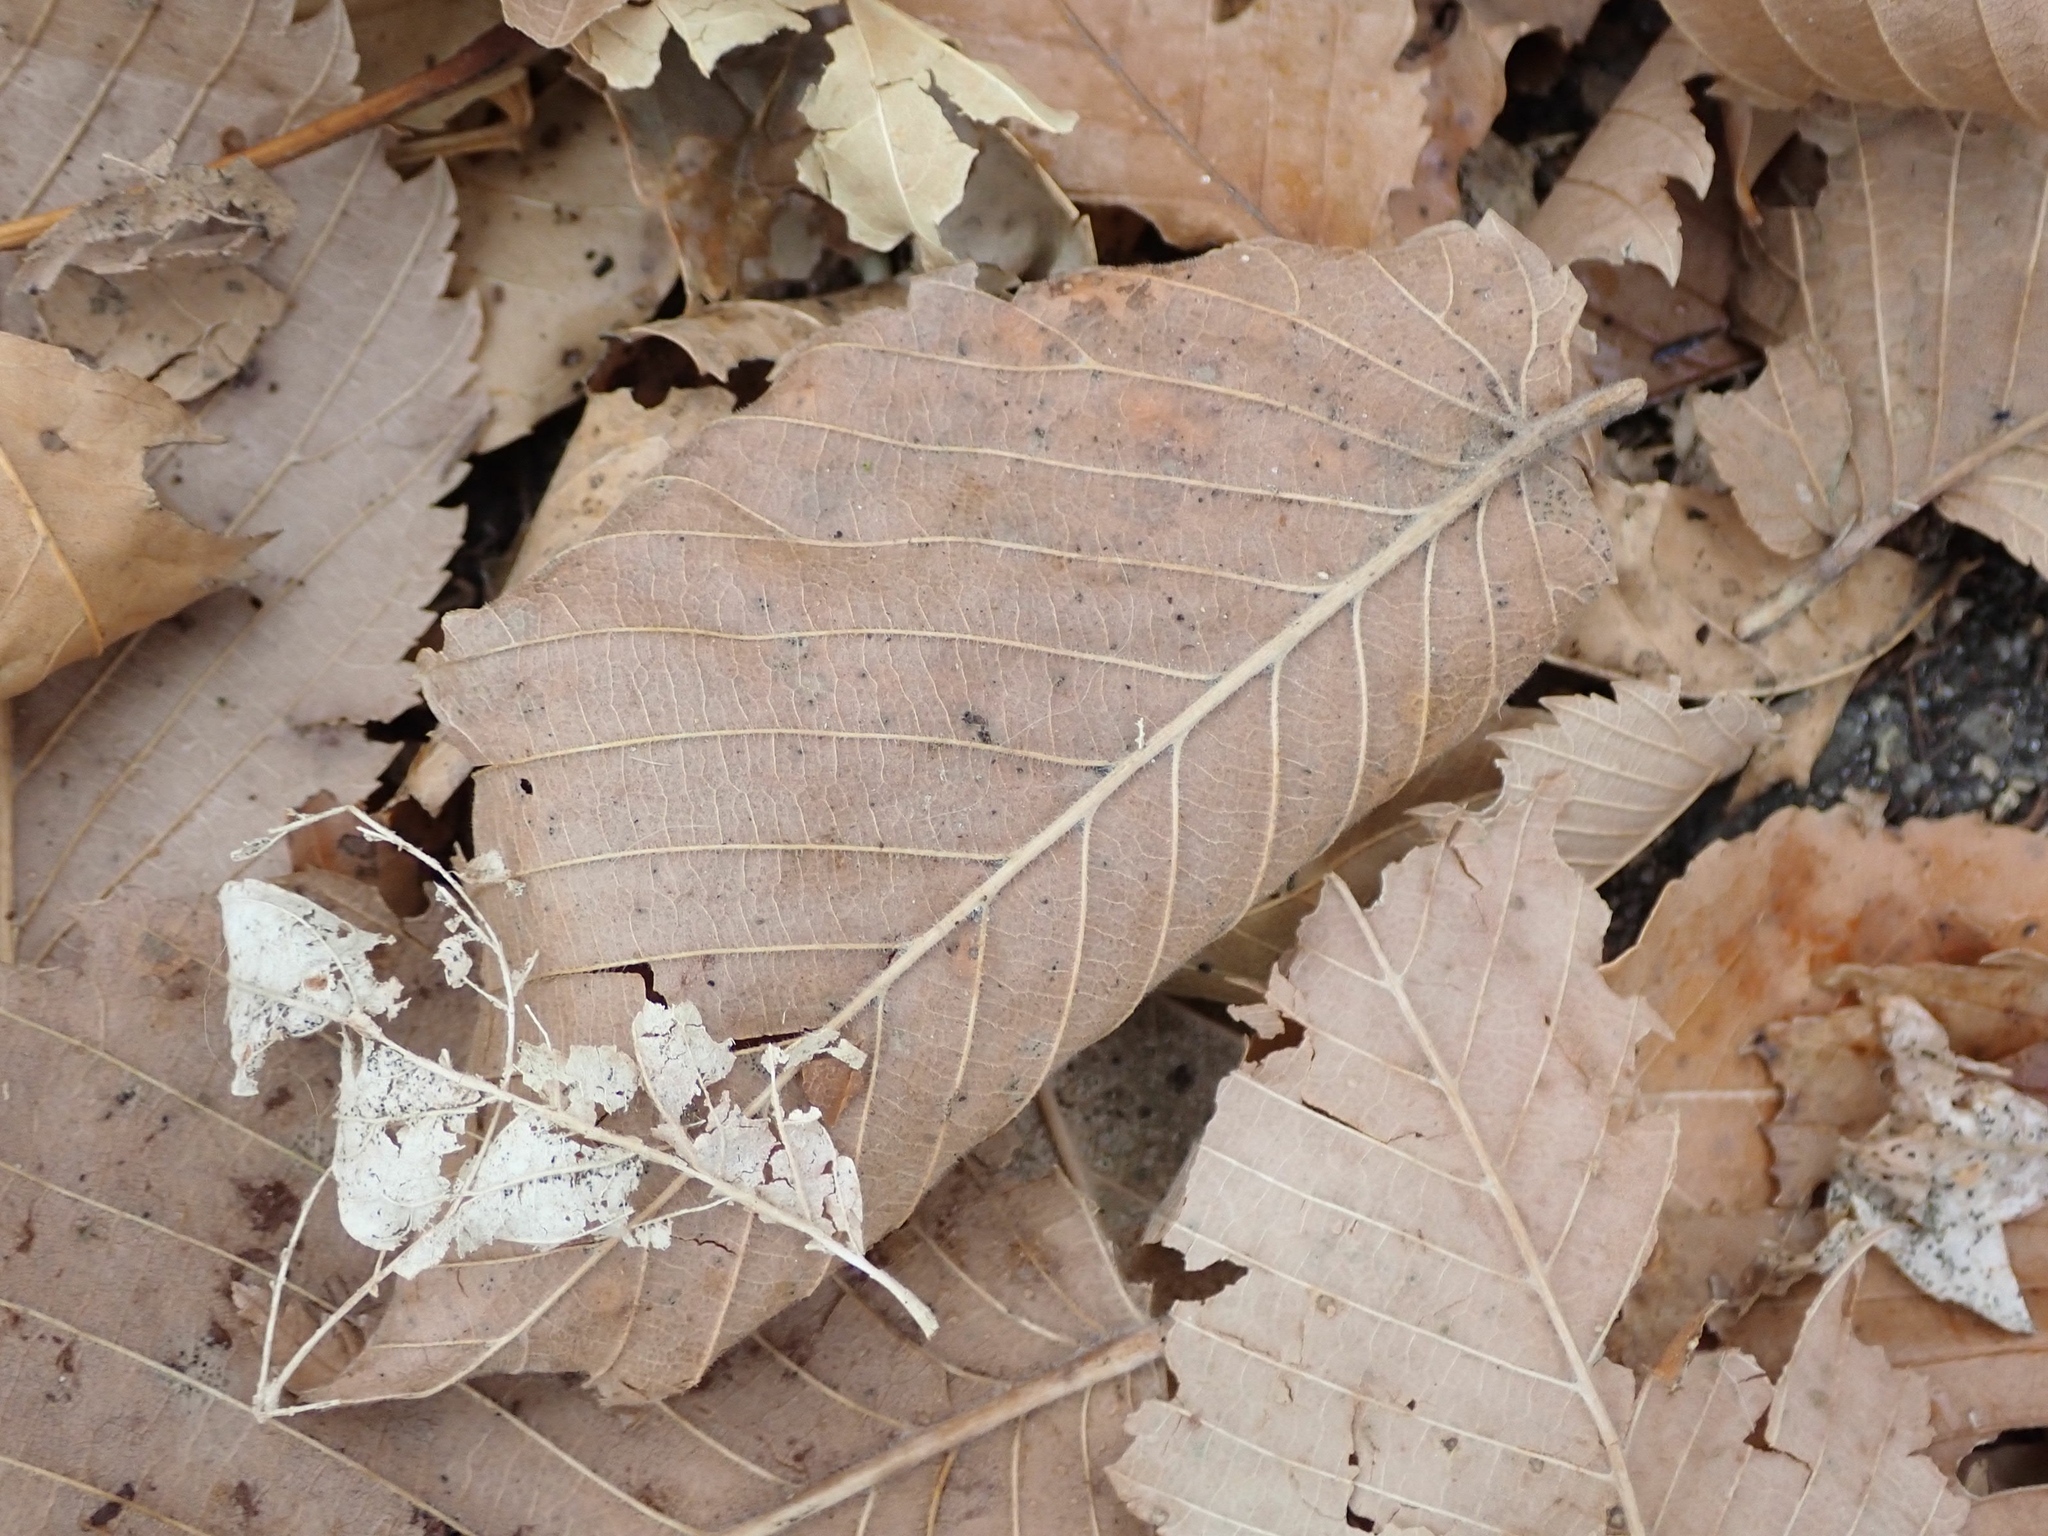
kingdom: Plantae
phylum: Tracheophyta
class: Magnoliopsida
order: Rosales
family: Ulmaceae
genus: Ulmus
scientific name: Ulmus americana
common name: American elm
